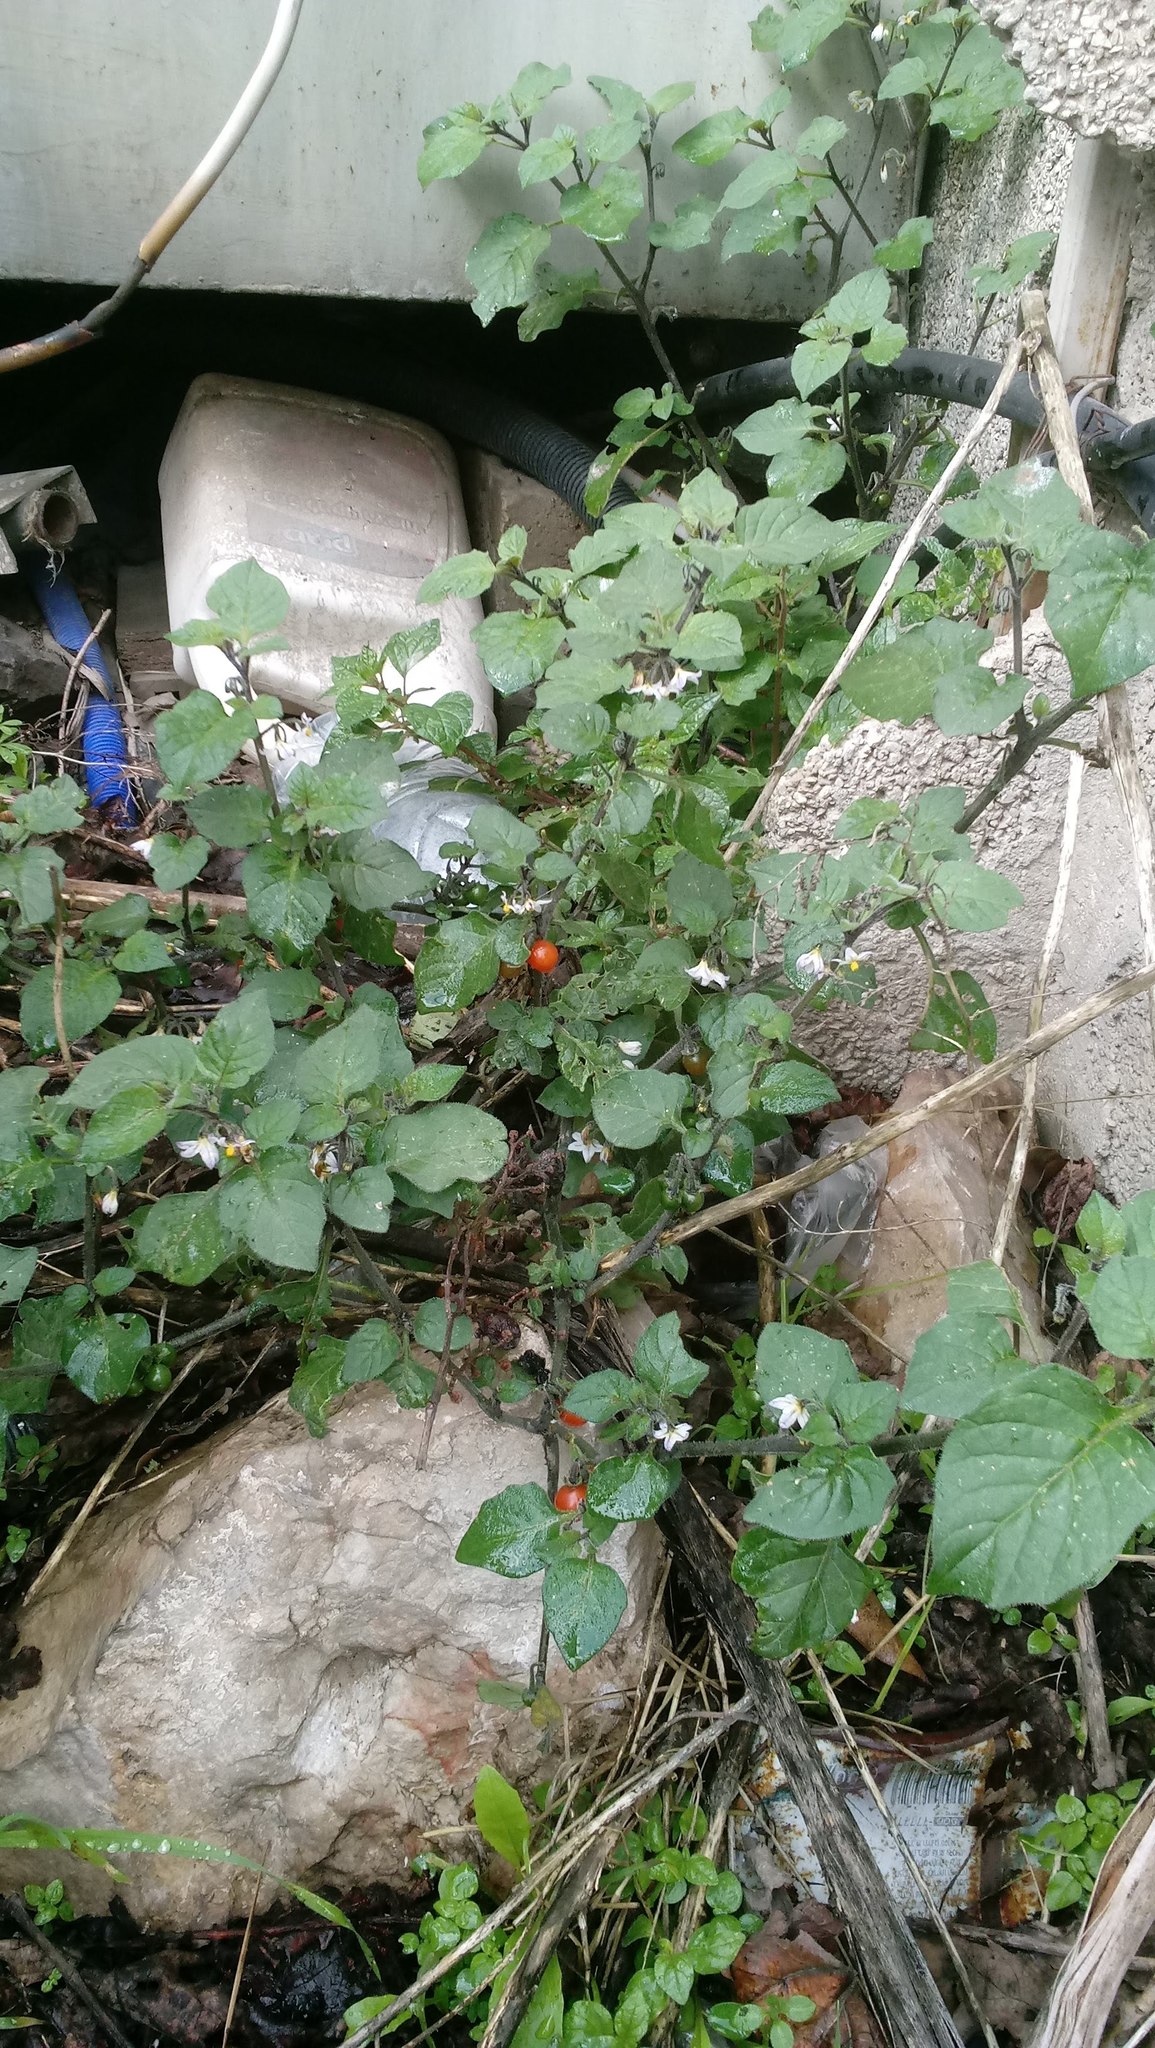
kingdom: Plantae
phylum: Tracheophyta
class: Magnoliopsida
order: Solanales
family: Solanaceae
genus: Solanum
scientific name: Solanum villosum
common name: Red nightshade
